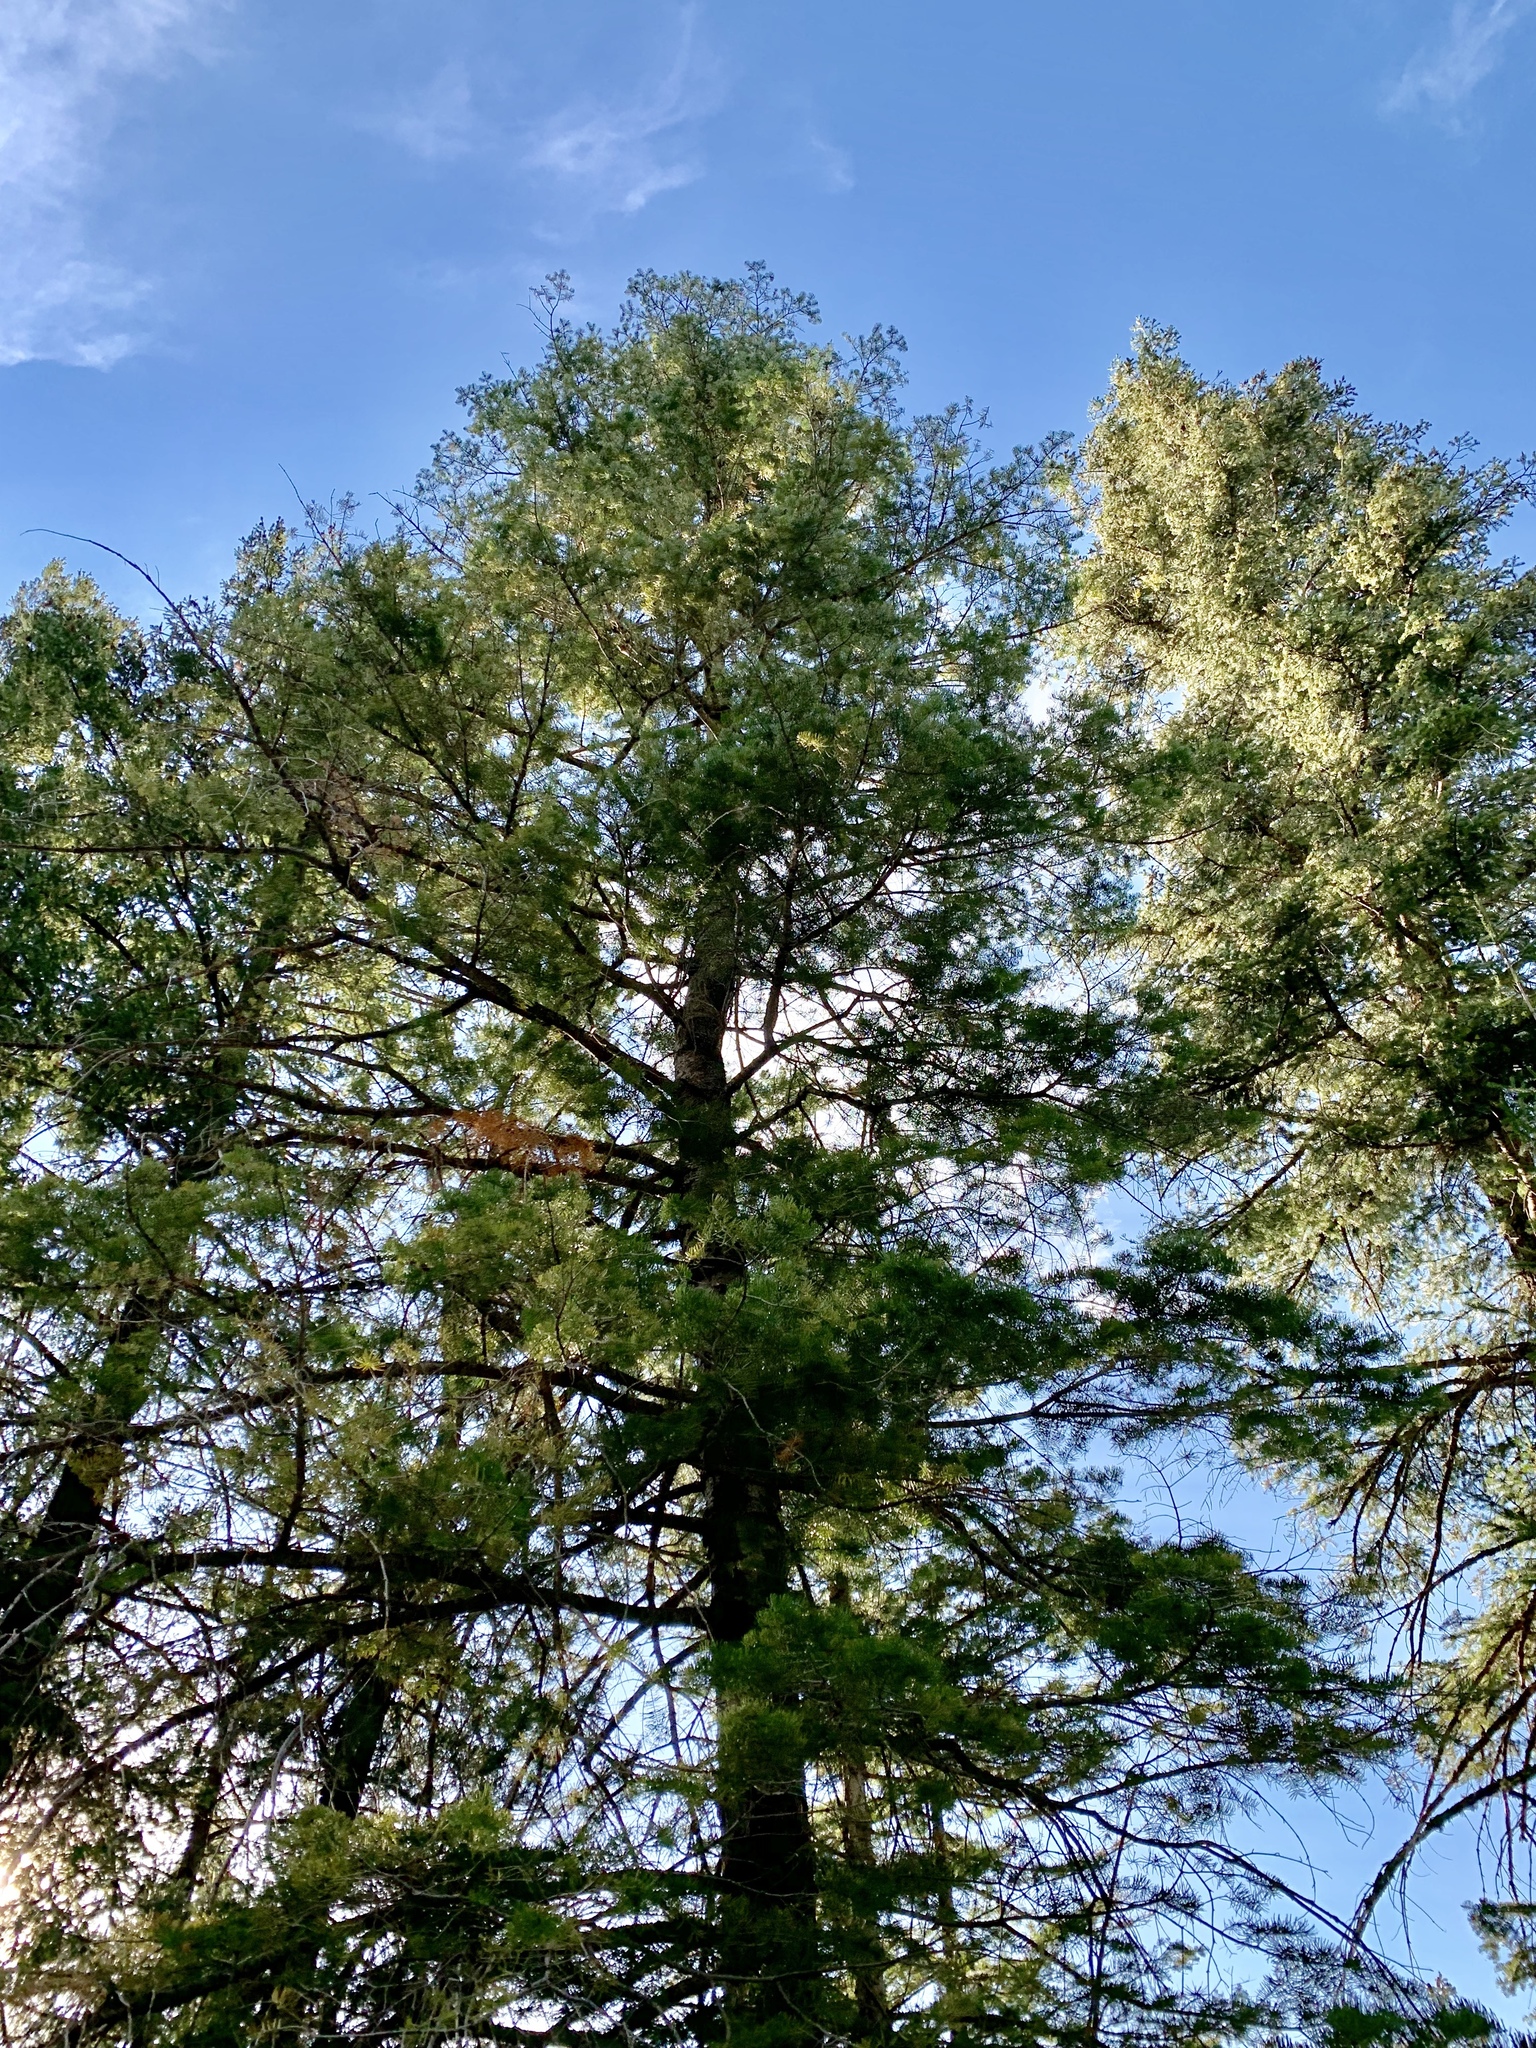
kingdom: Plantae
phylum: Tracheophyta
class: Pinopsida
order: Pinales
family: Pinaceae
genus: Abies
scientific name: Abies concolor
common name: Colorado fir
